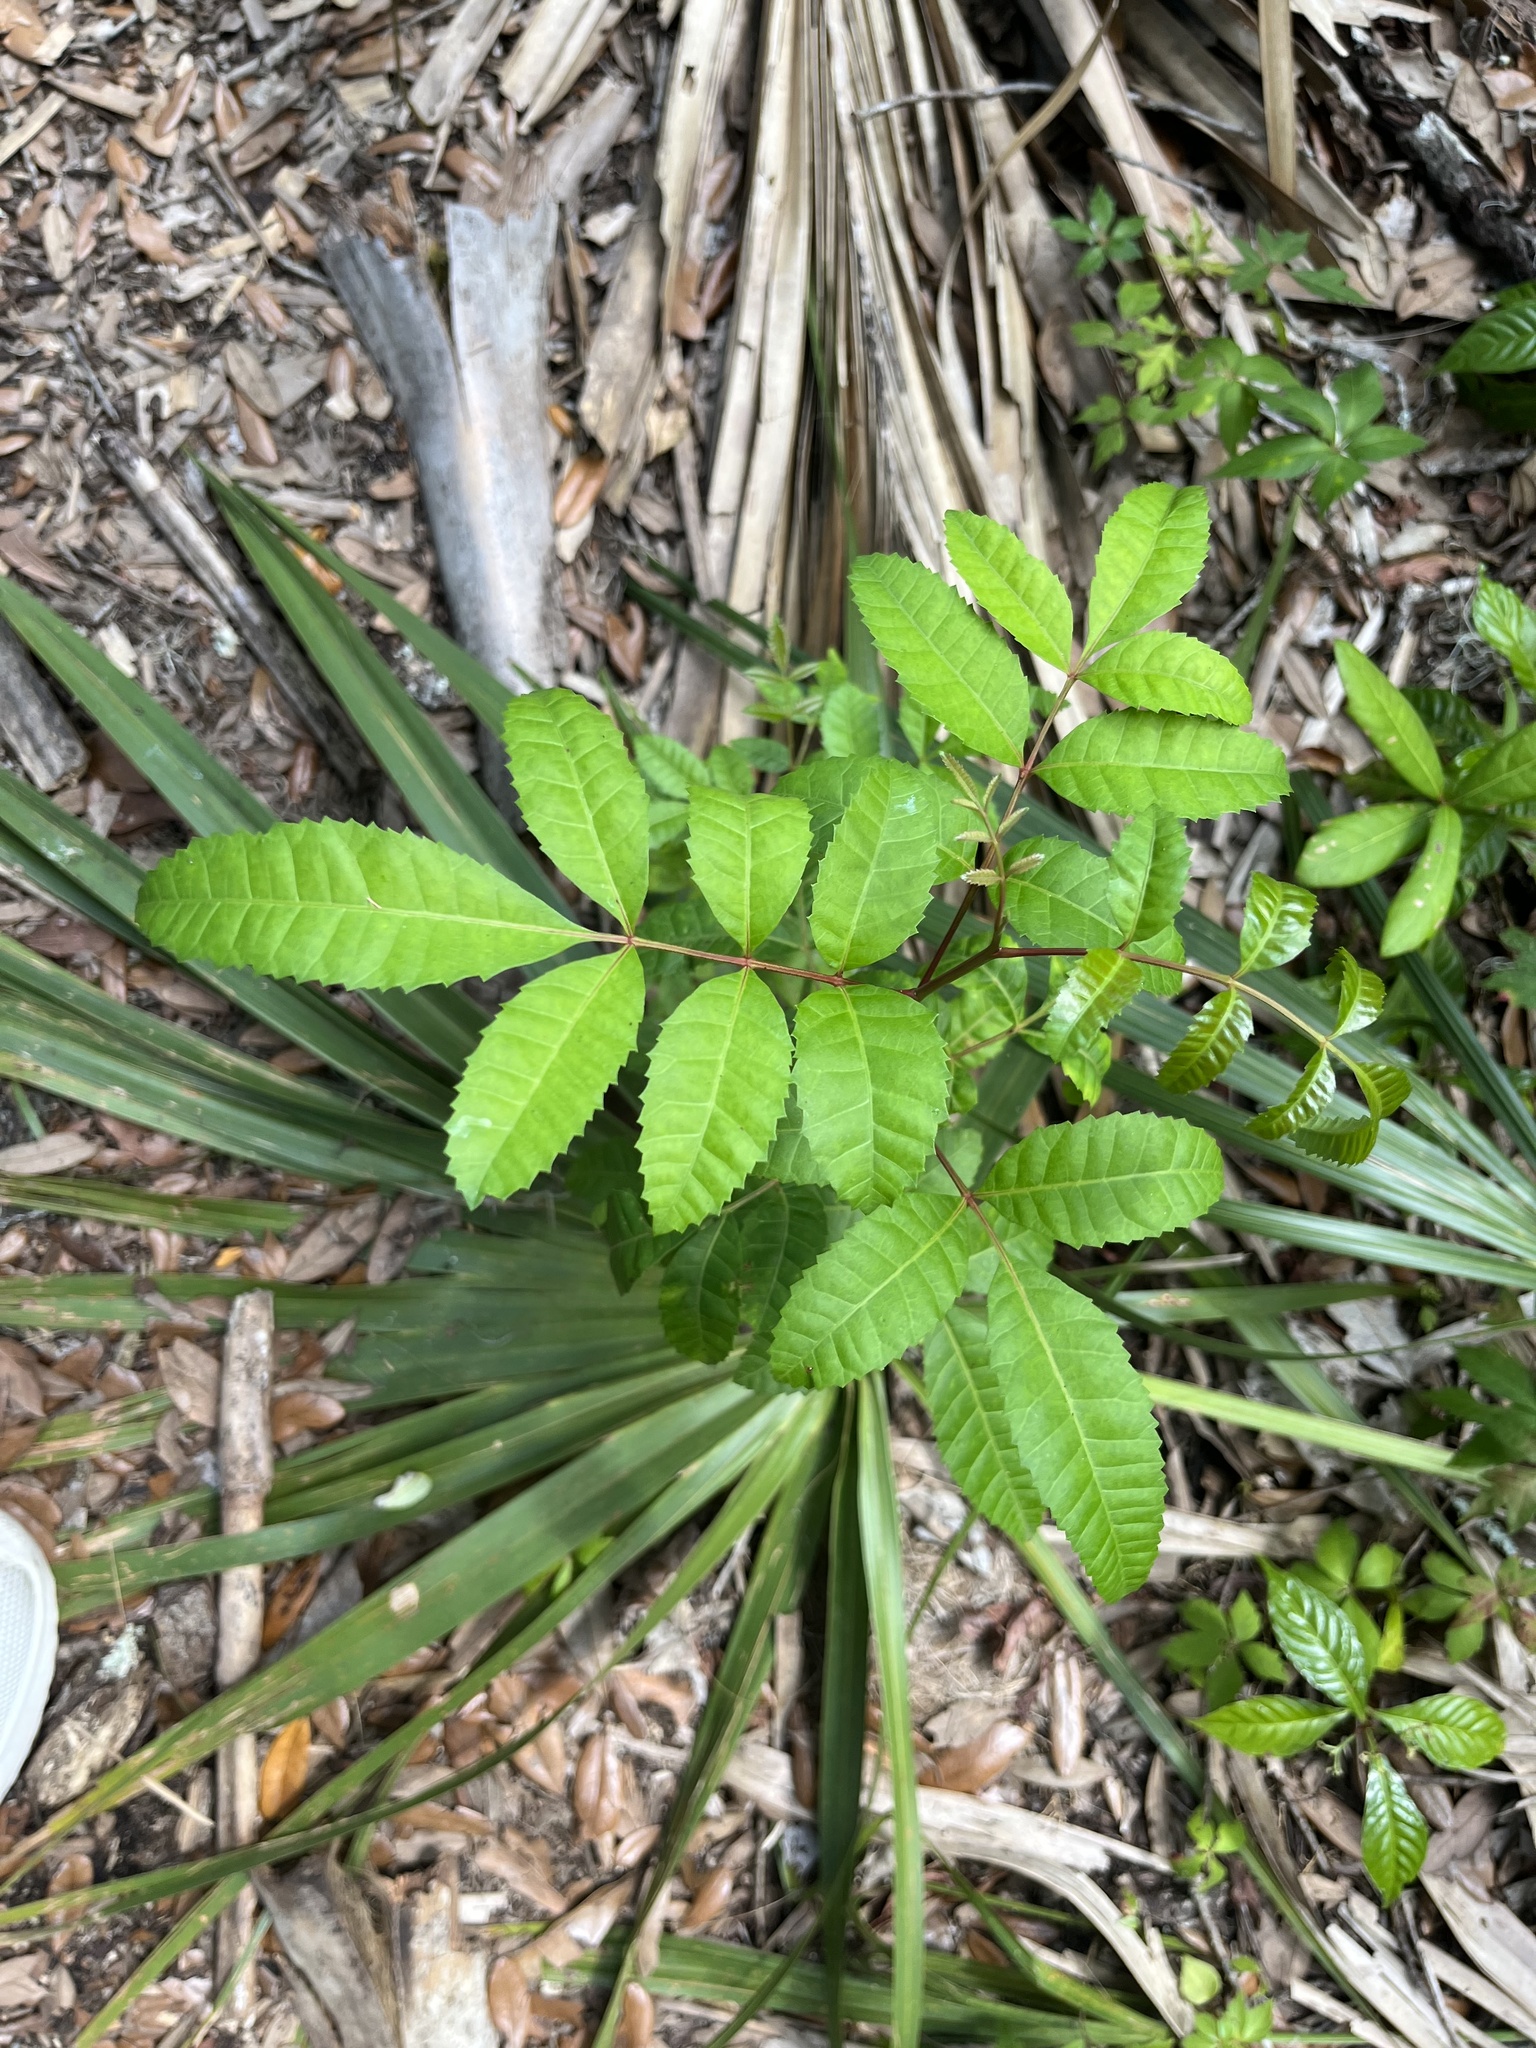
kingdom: Plantae
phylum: Tracheophyta
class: Magnoliopsida
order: Sapindales
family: Anacardiaceae
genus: Schinus
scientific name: Schinus terebinthifolia
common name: Brazilian peppertree
